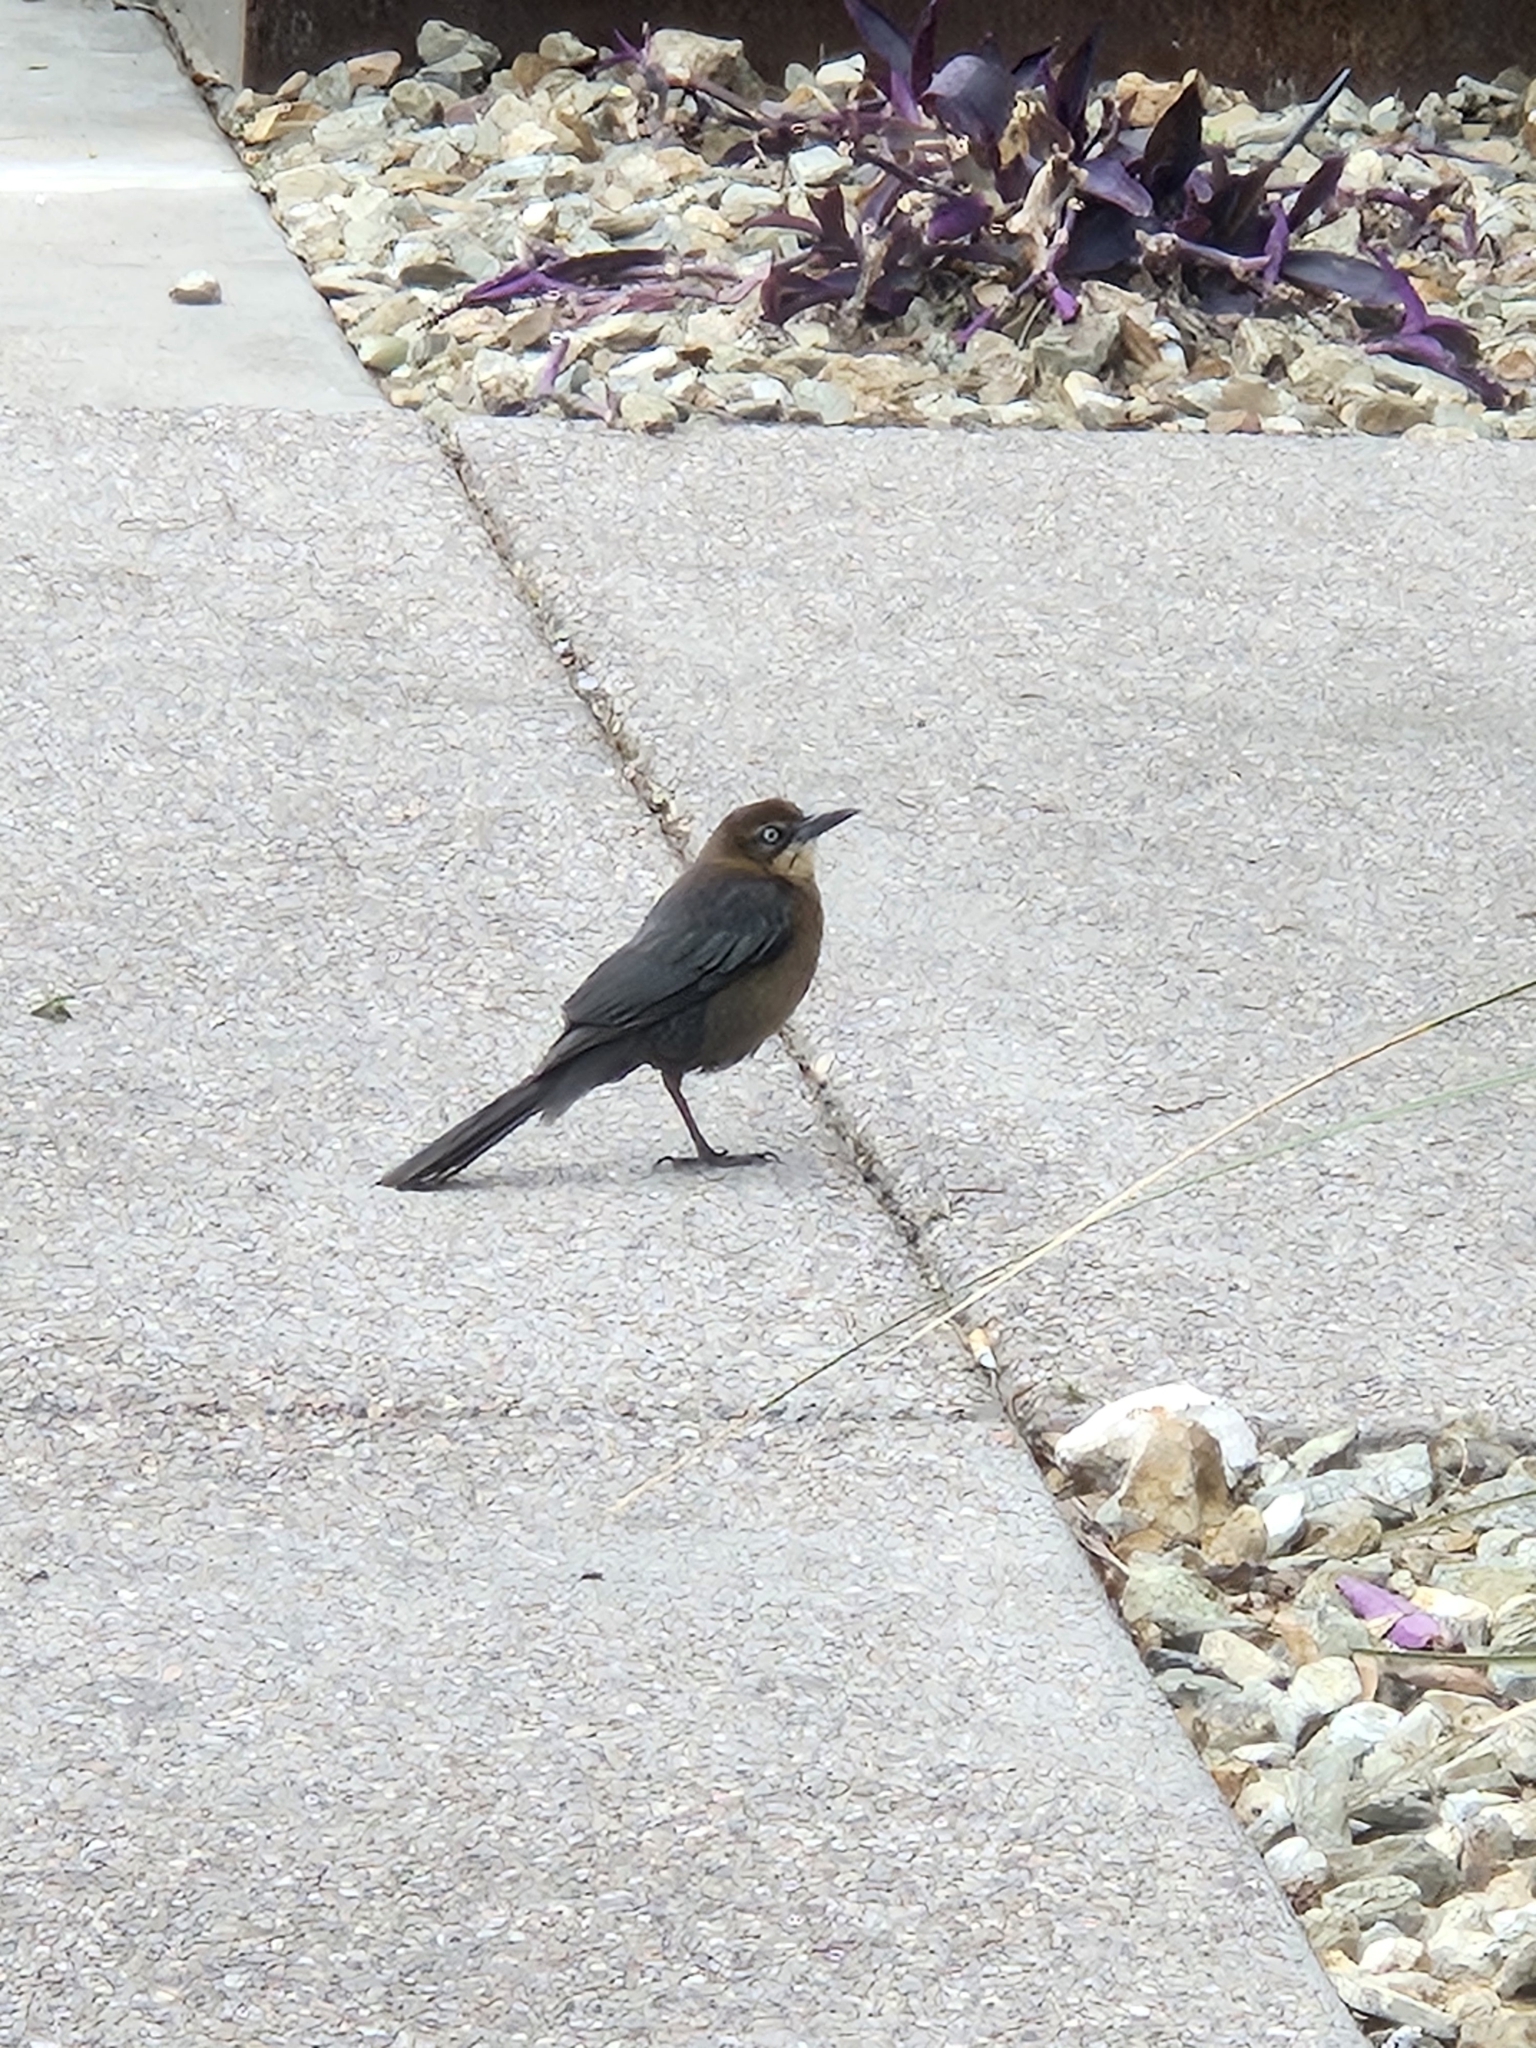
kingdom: Animalia
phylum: Chordata
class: Aves
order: Passeriformes
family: Icteridae
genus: Quiscalus
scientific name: Quiscalus mexicanus
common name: Great-tailed grackle
